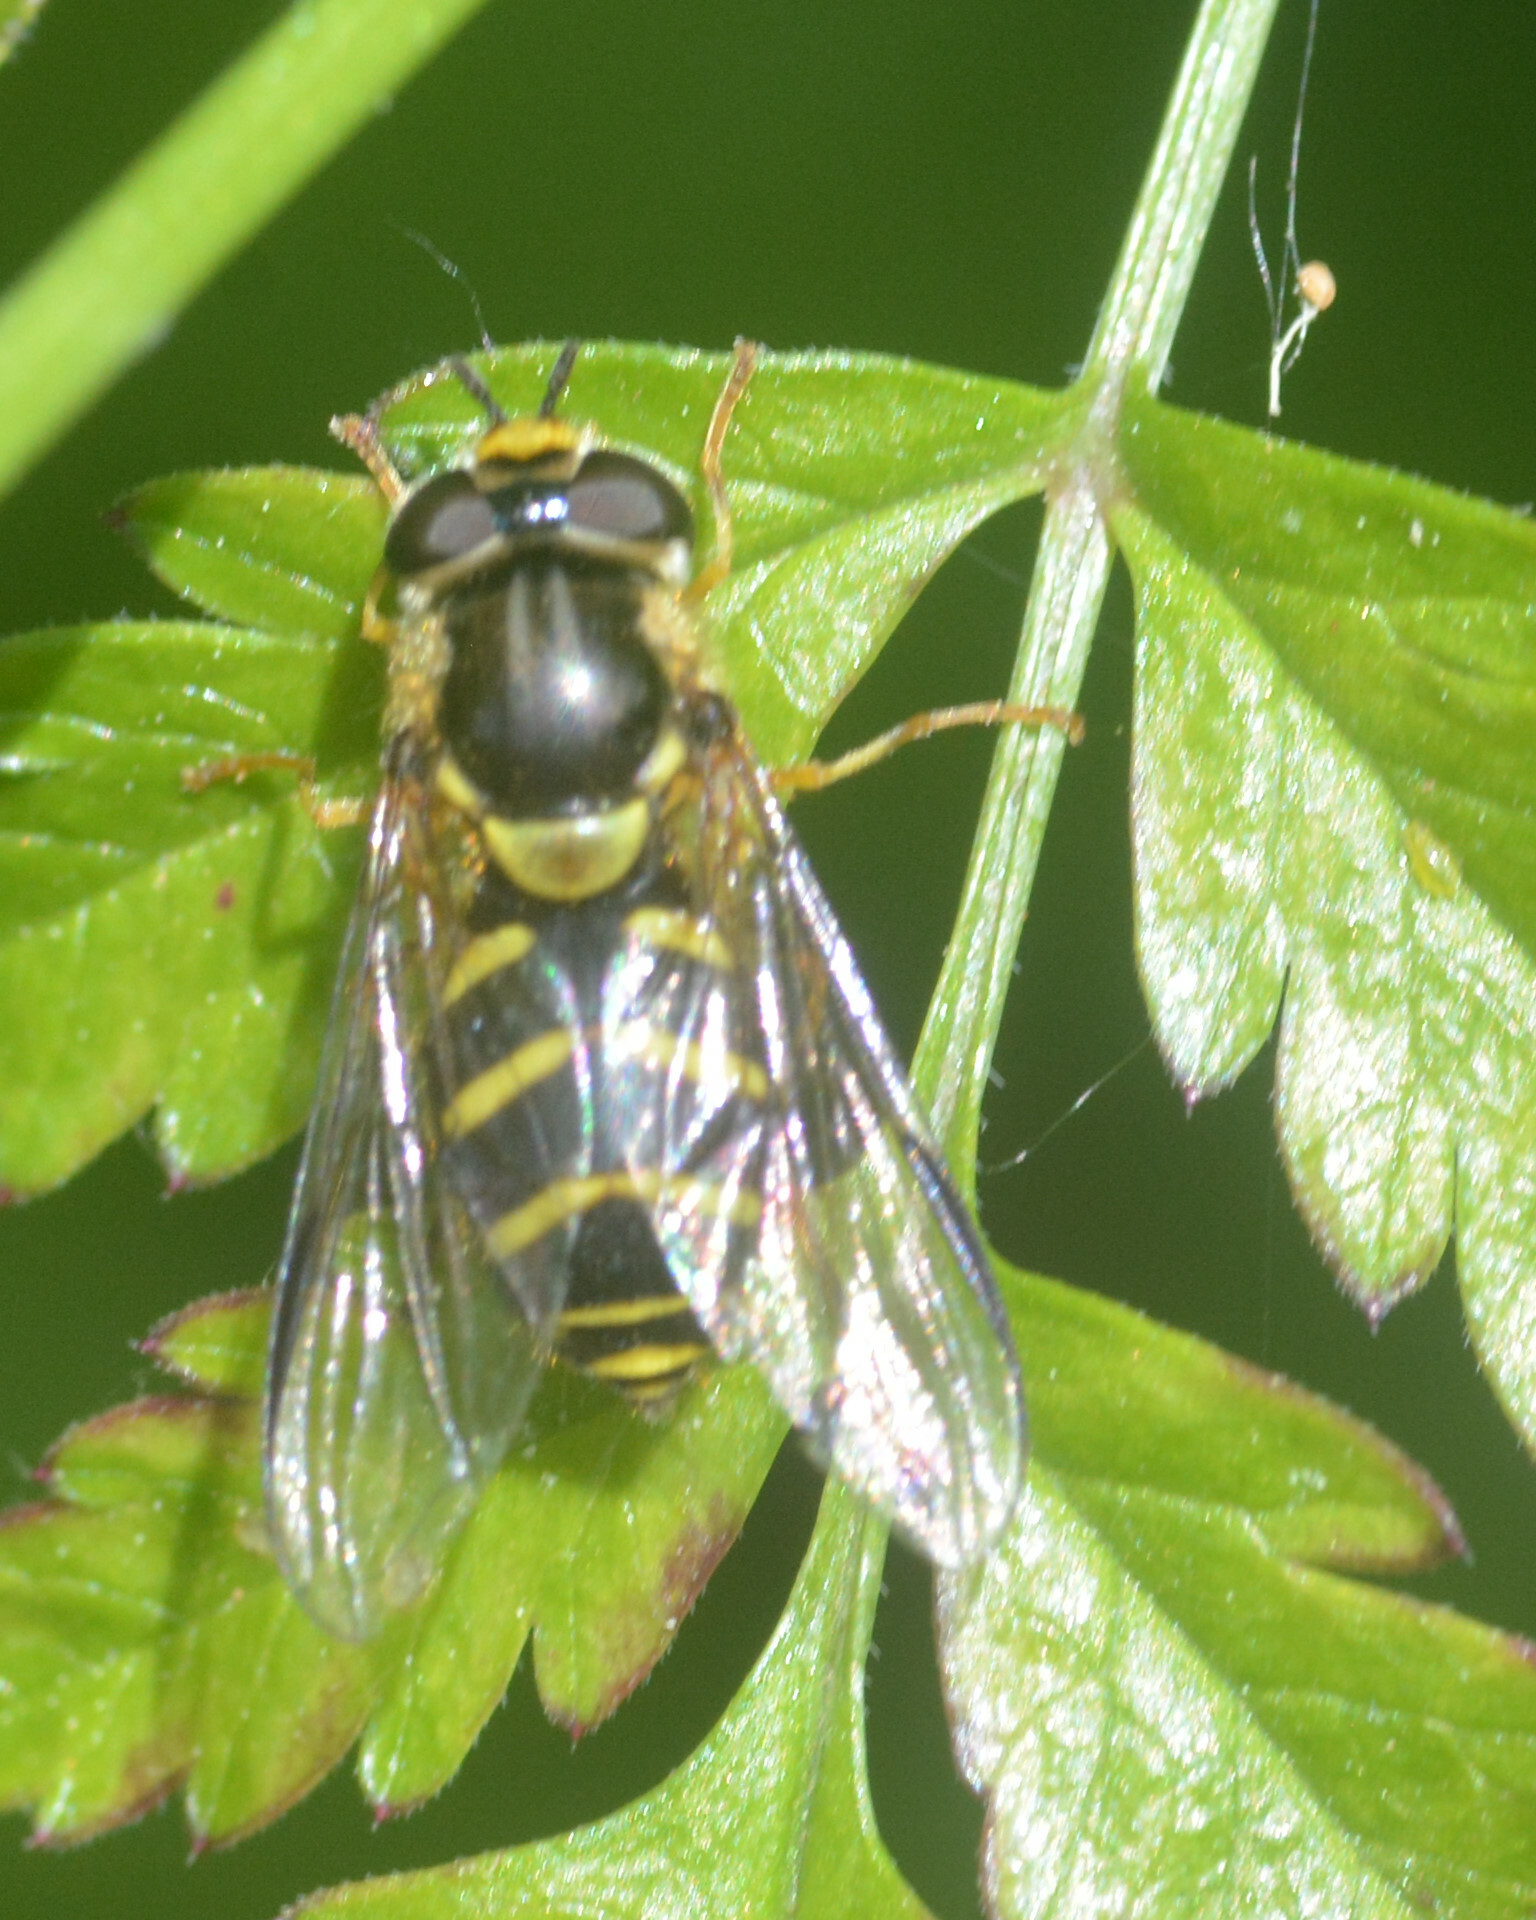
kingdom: Animalia
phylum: Arthropoda
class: Insecta
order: Diptera
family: Syrphidae
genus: Dasysyrphus
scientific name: Dasysyrphus albostriatus
